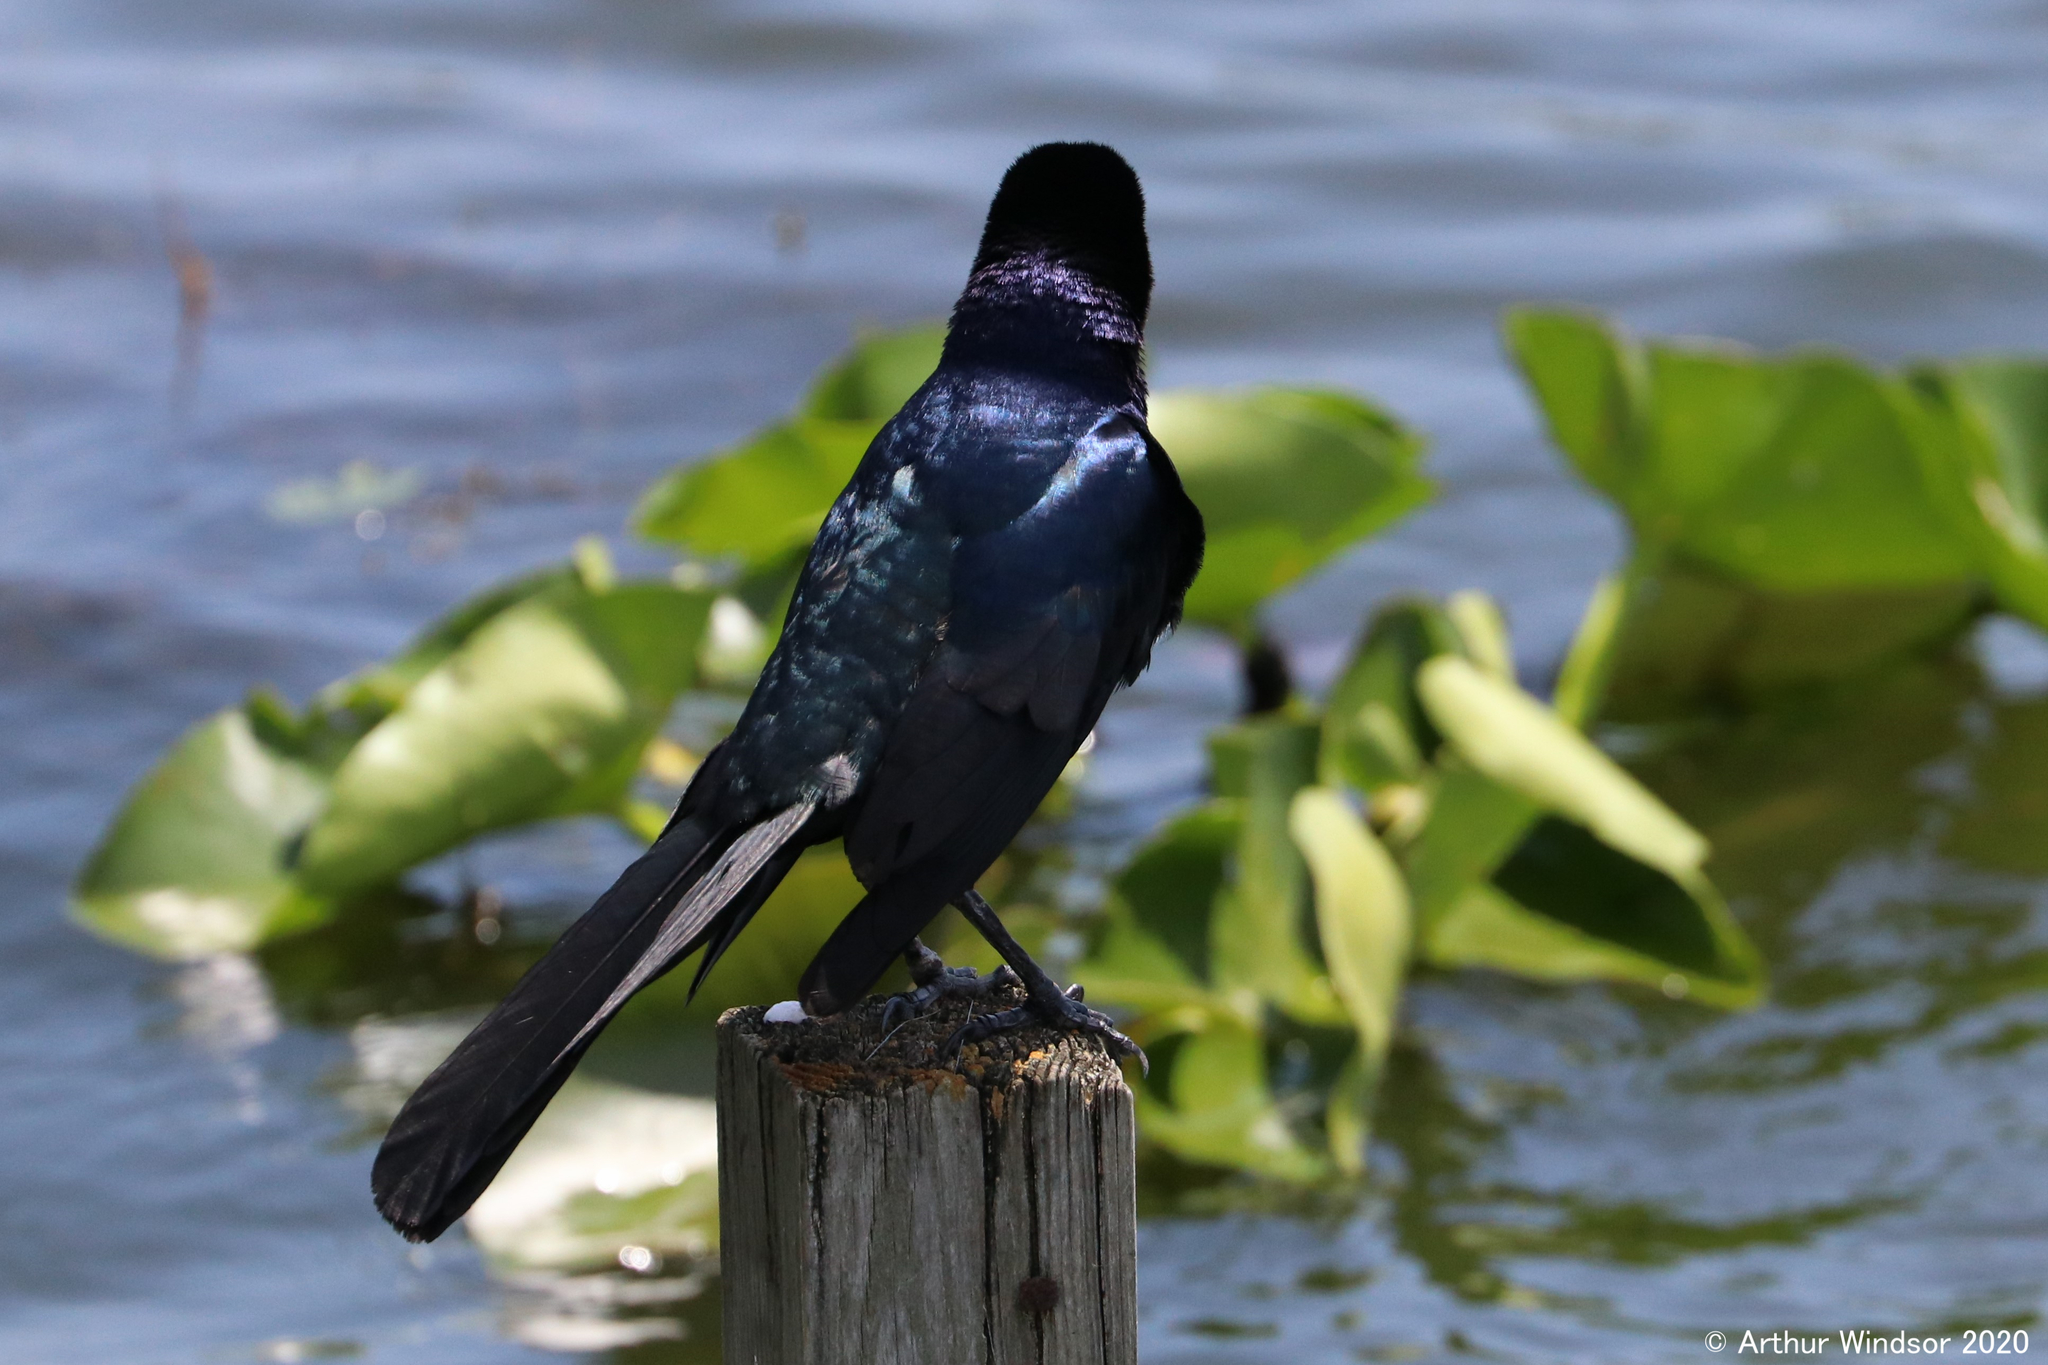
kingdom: Animalia
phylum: Chordata
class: Aves
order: Passeriformes
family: Icteridae
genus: Quiscalus
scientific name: Quiscalus major
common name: Boat-tailed grackle
